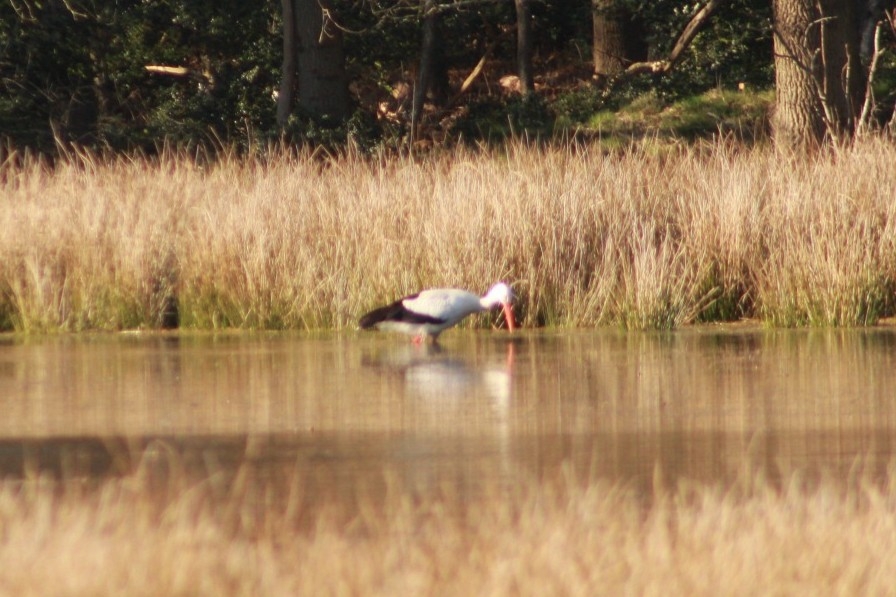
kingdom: Animalia
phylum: Chordata
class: Aves
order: Ciconiiformes
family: Ciconiidae
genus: Ciconia
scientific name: Ciconia ciconia
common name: White stork
